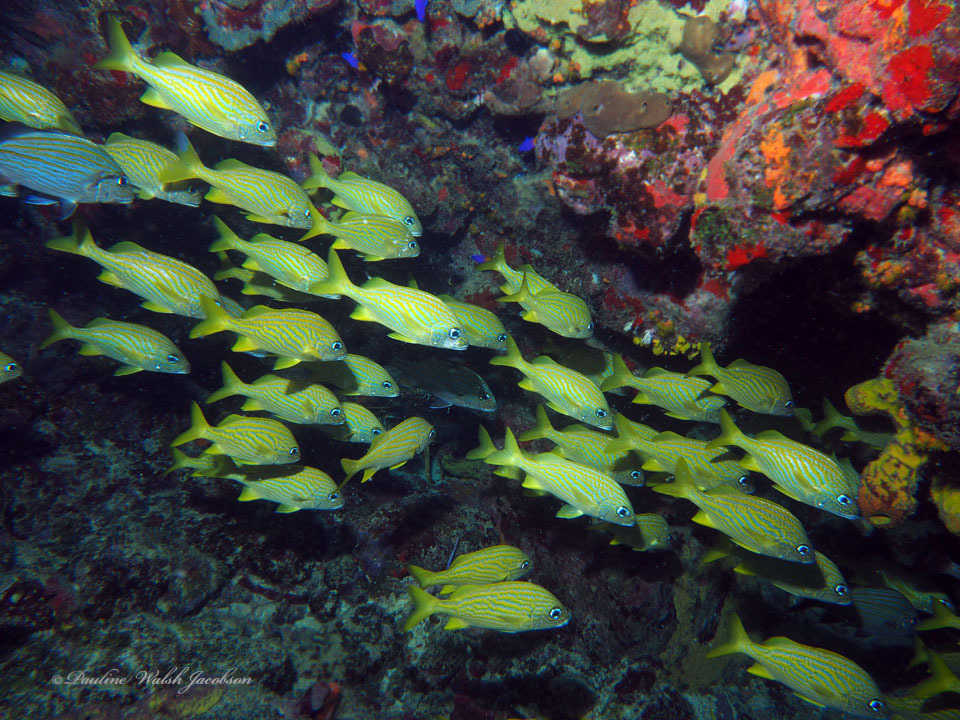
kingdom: Animalia
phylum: Chordata
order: Perciformes
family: Haemulidae
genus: Haemulon
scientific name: Haemulon flavolineatum
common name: French grunt
